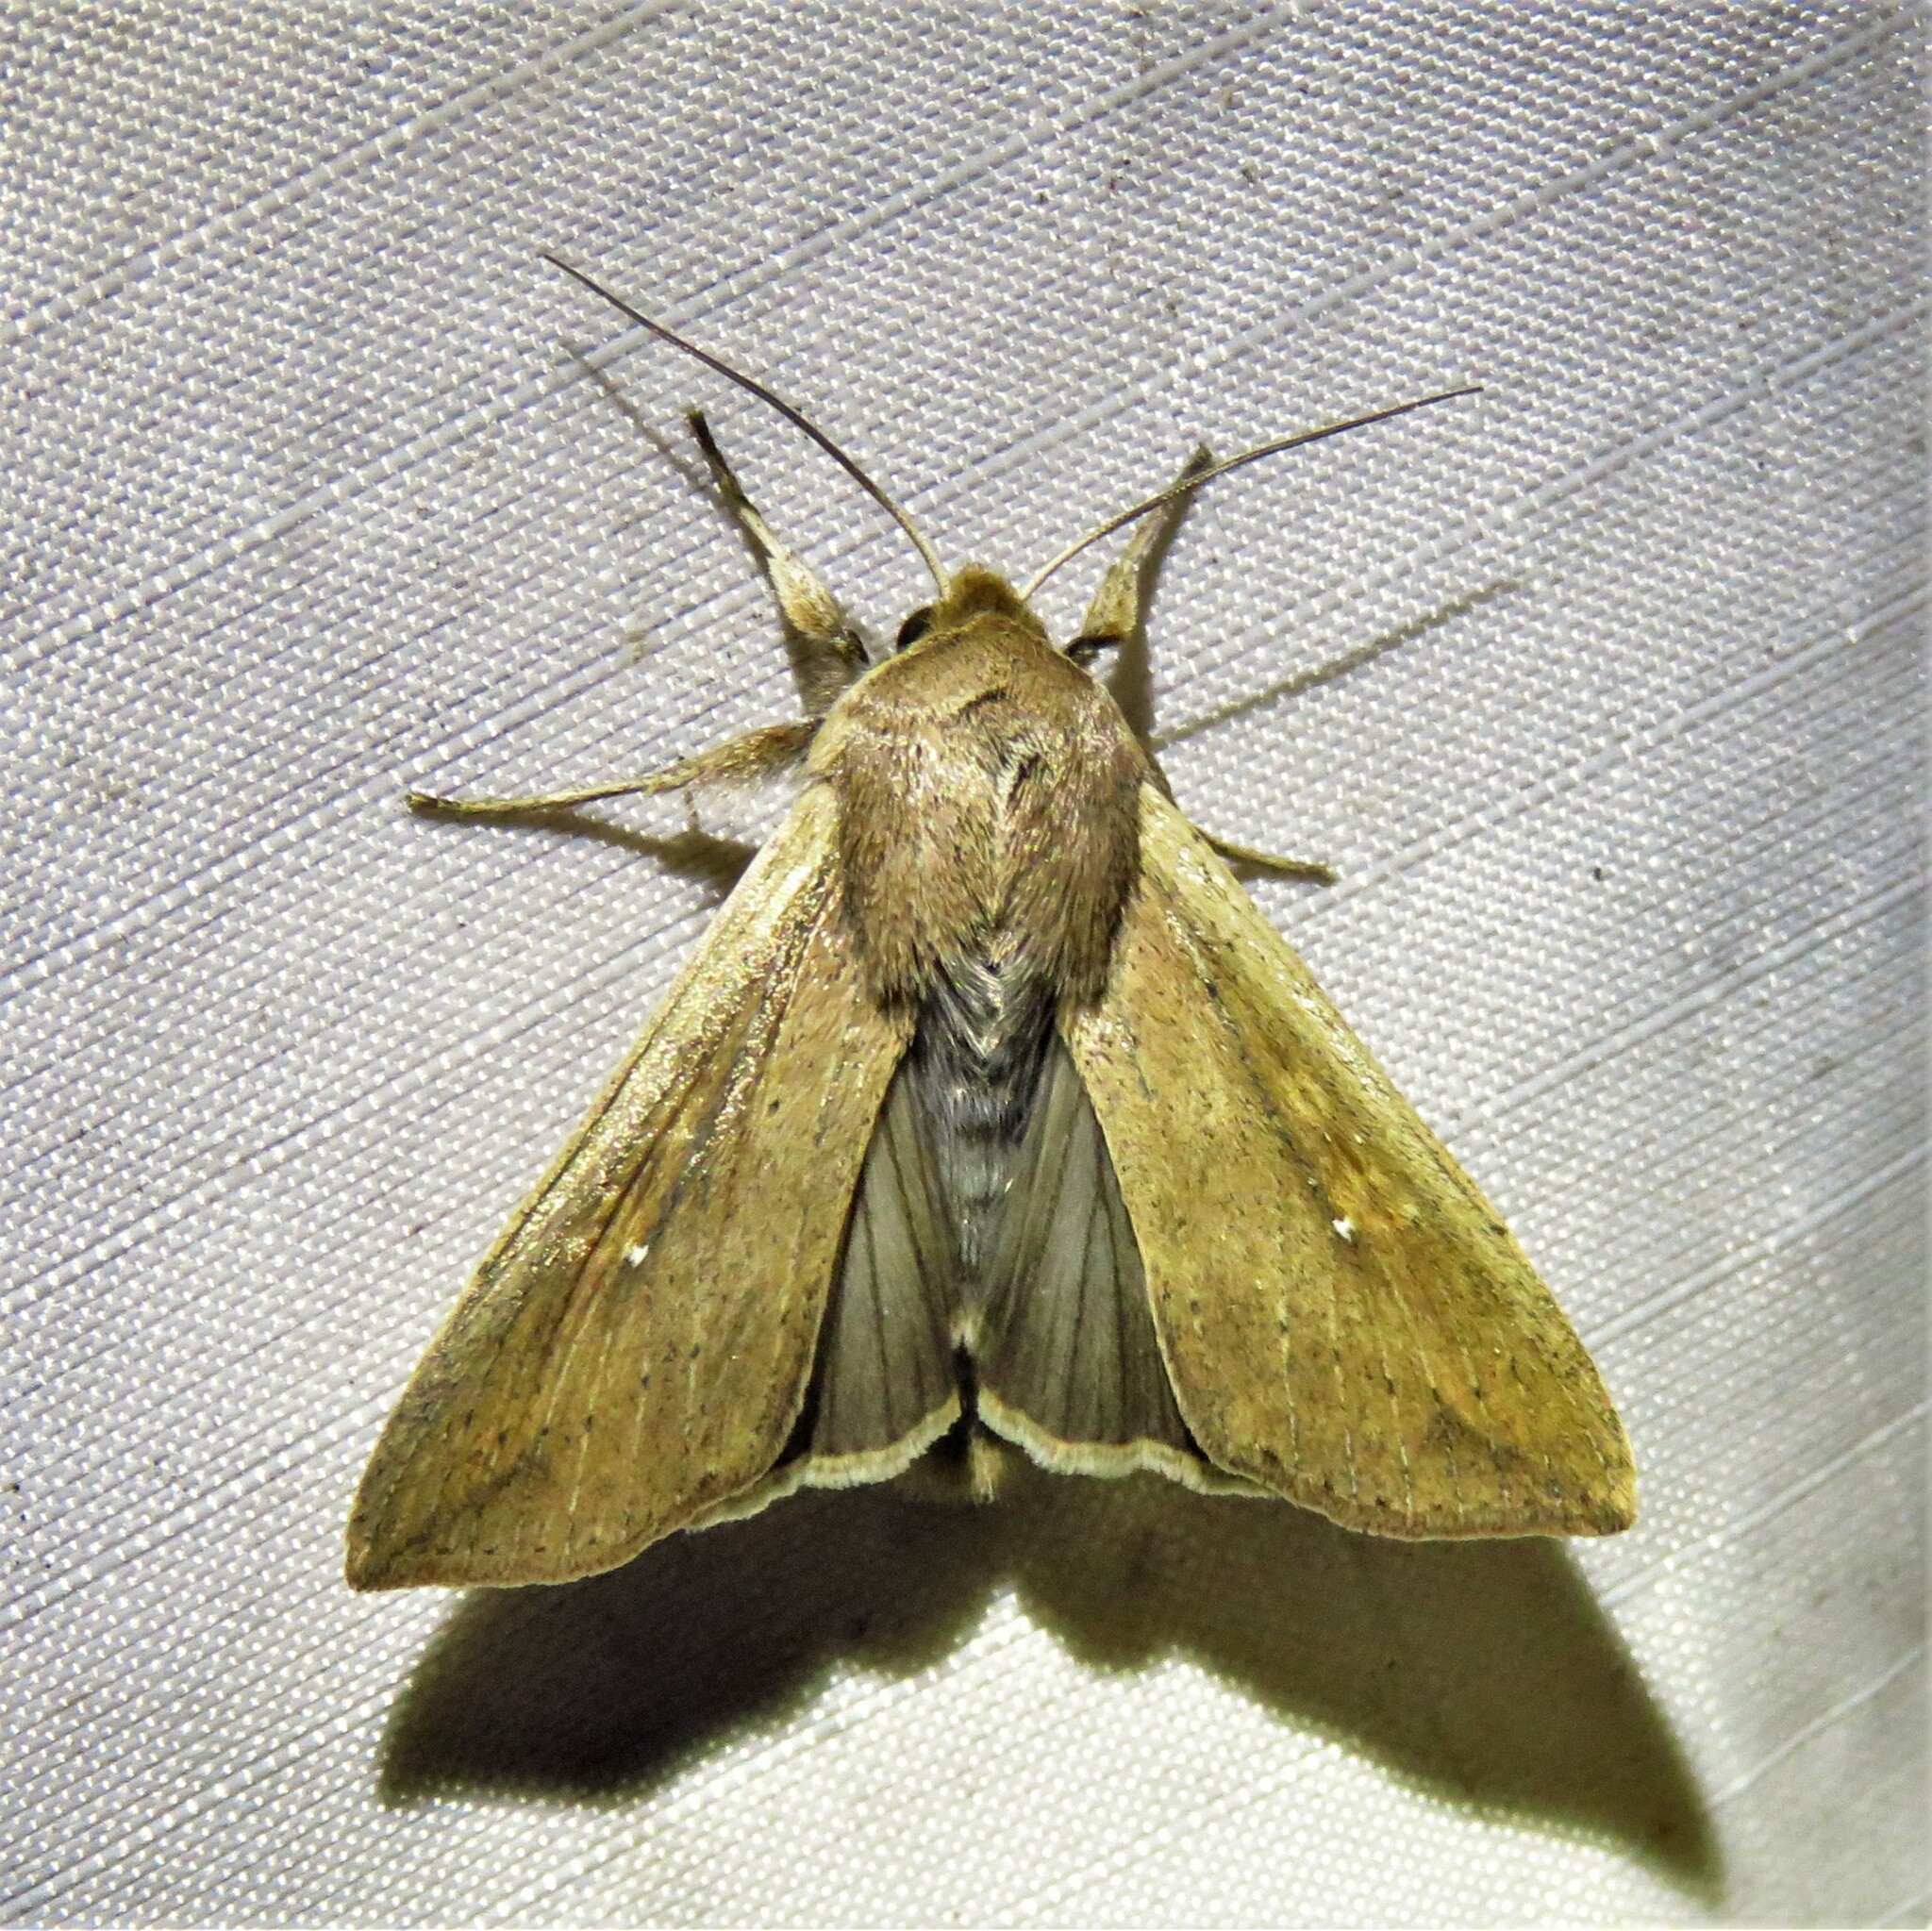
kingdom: Animalia
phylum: Arthropoda
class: Insecta
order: Lepidoptera
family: Noctuidae
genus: Mythimna
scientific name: Mythimna unipuncta
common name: White-speck
